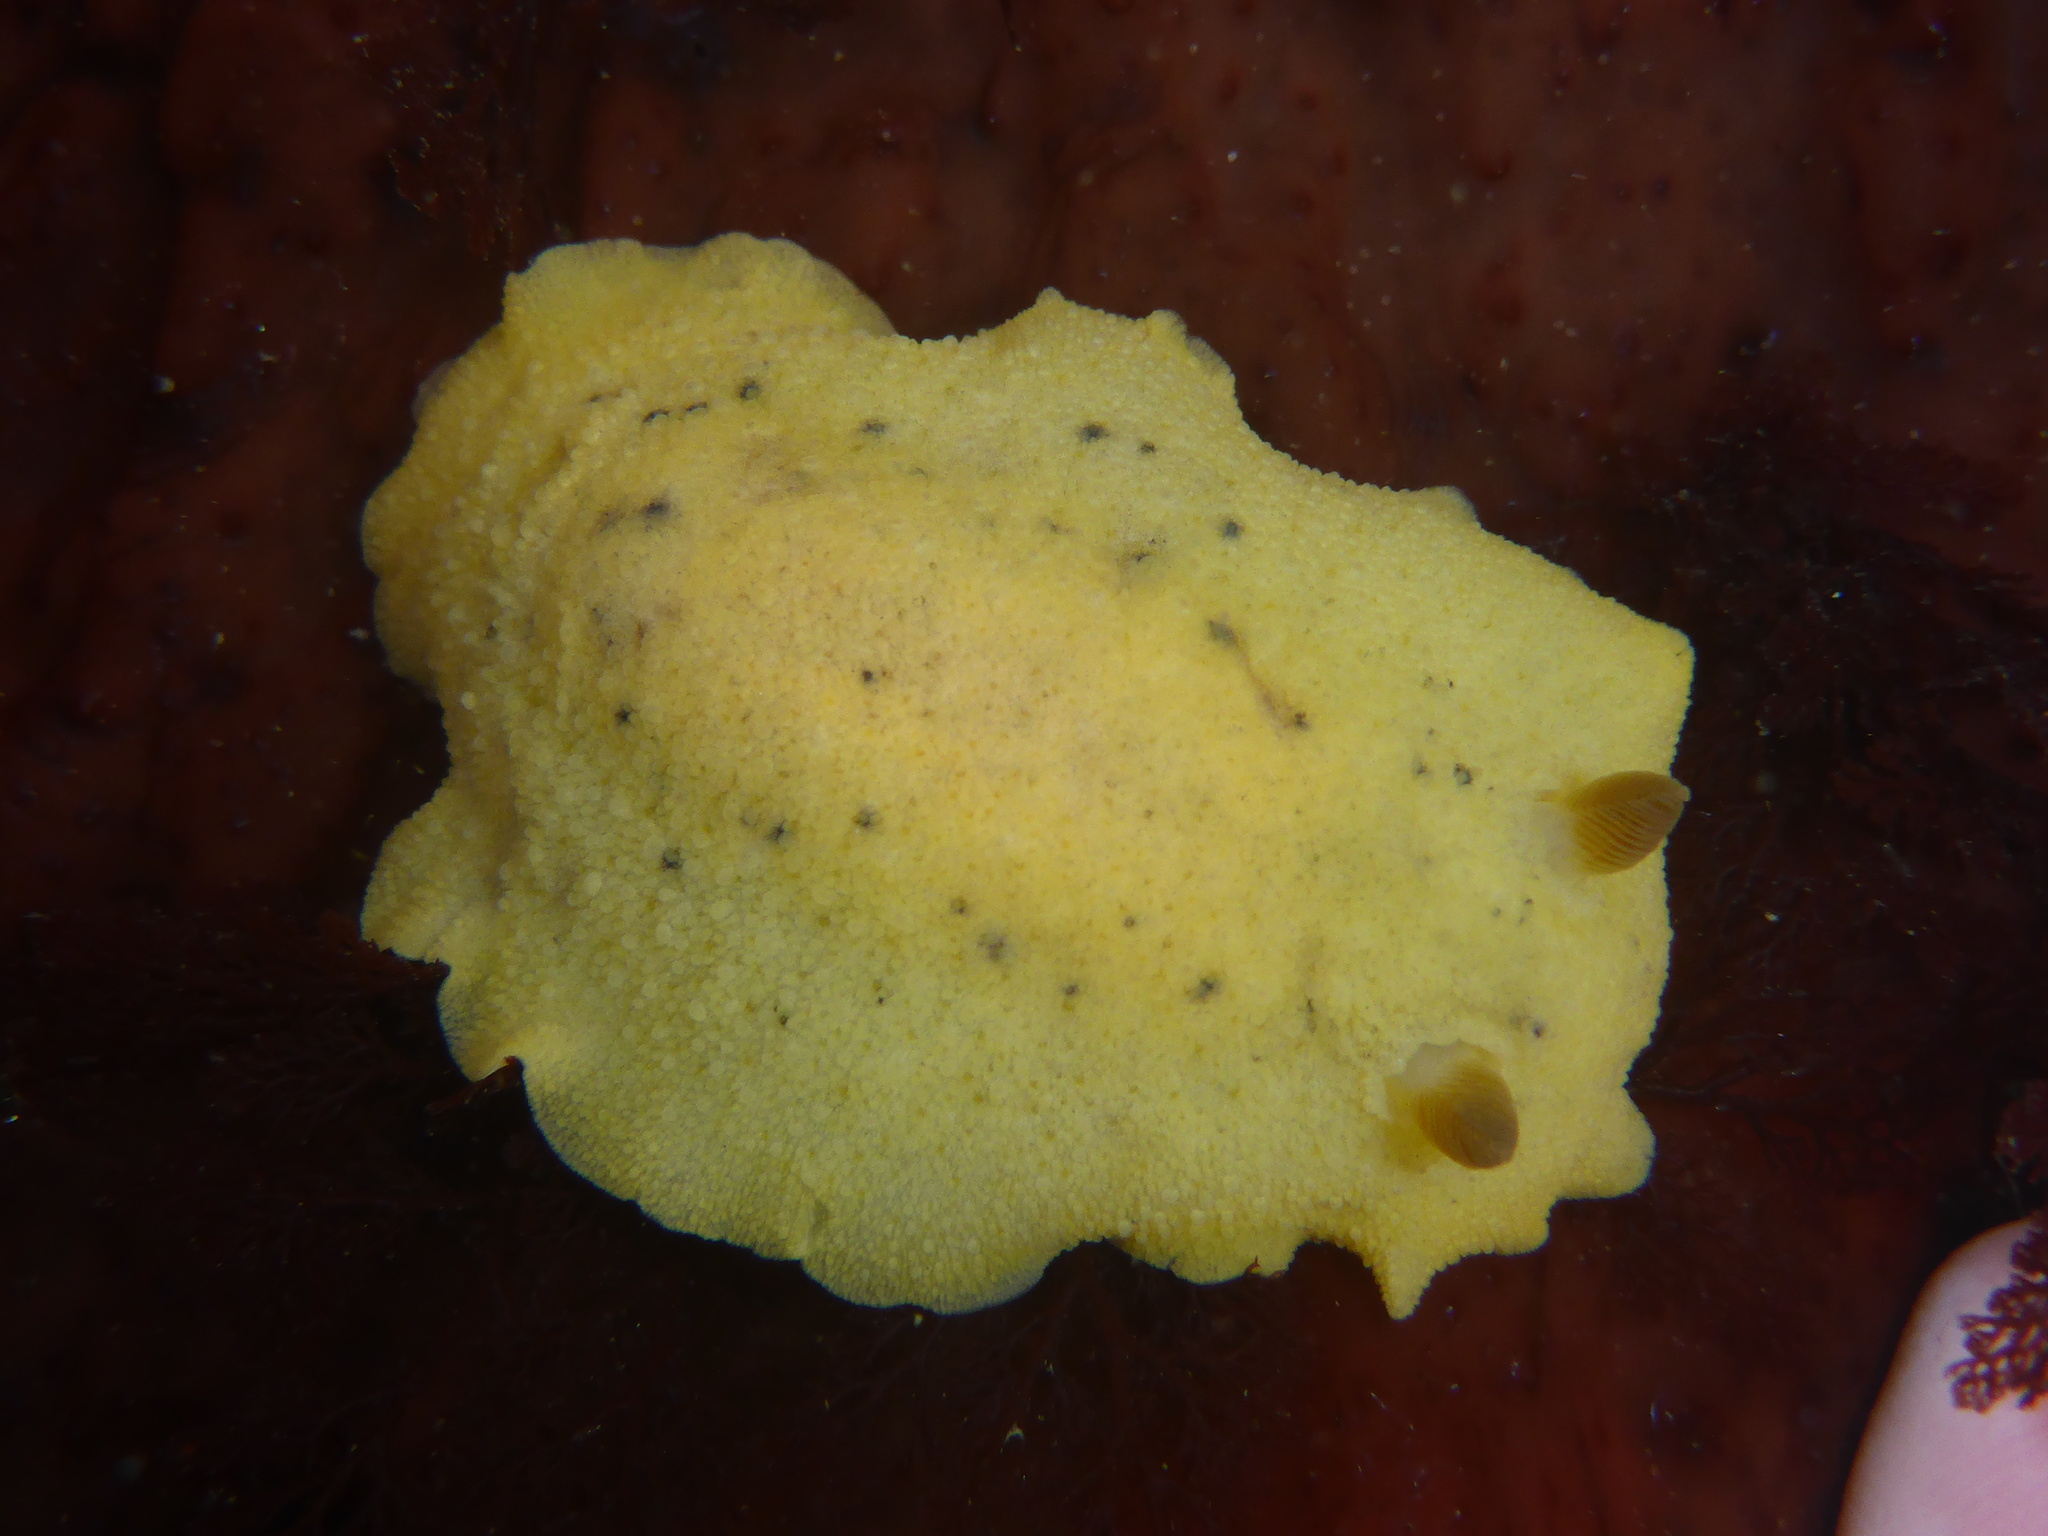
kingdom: Animalia
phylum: Mollusca
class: Gastropoda
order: Nudibranchia
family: Discodorididae
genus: Geitodoris
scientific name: Geitodoris heathi
